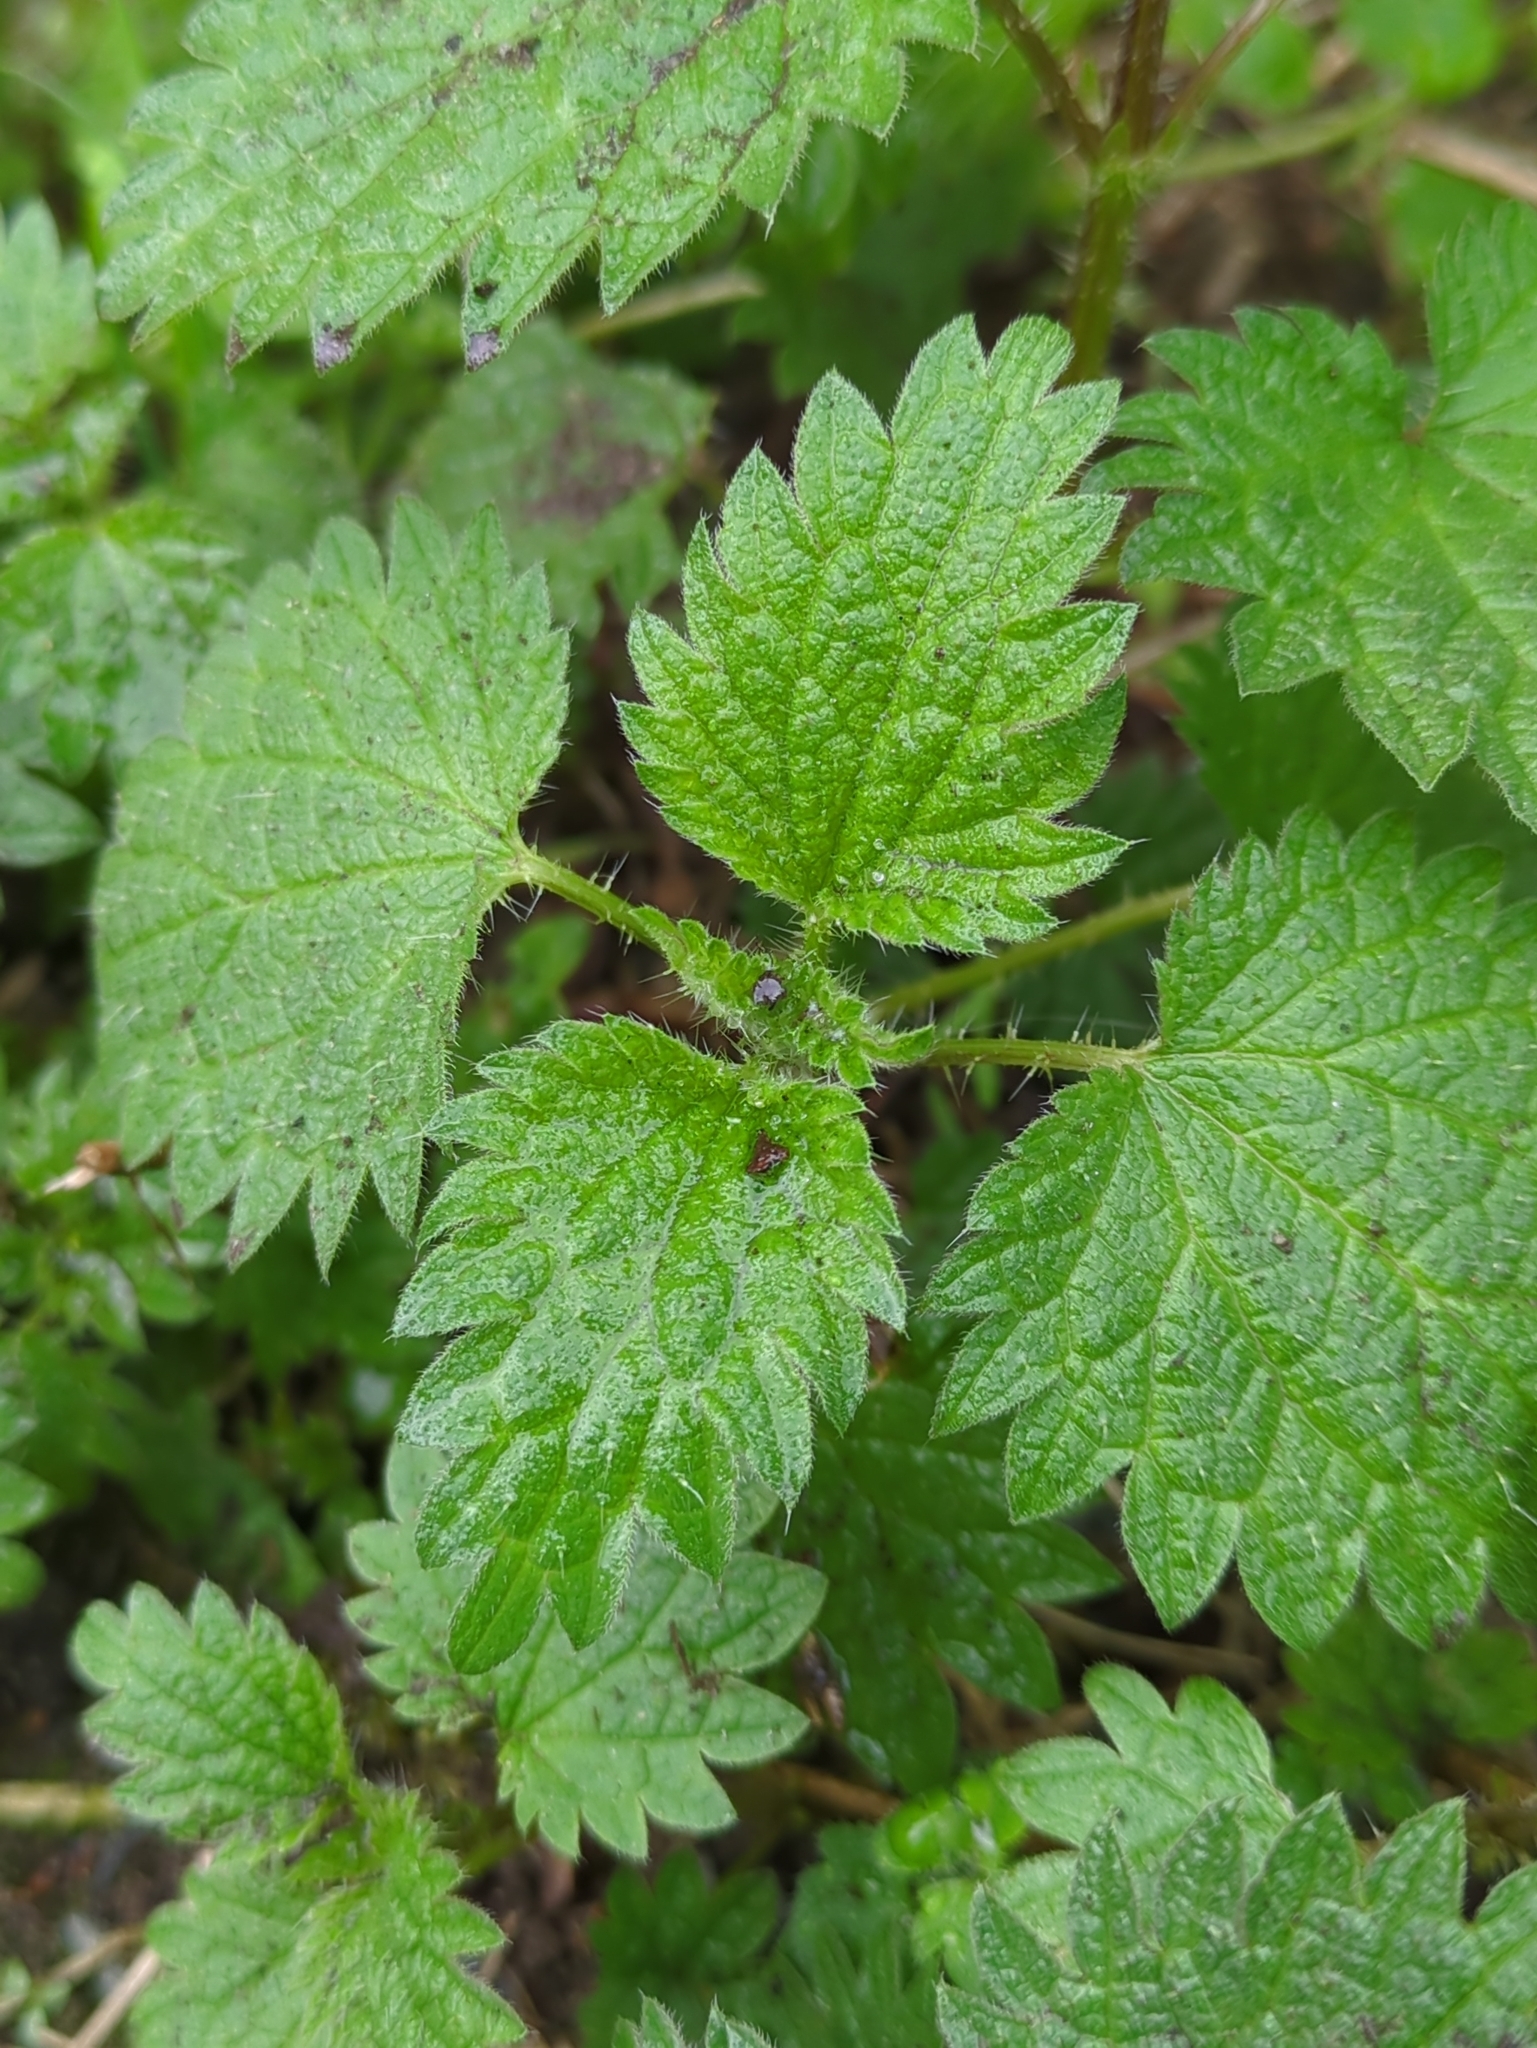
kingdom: Plantae
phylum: Tracheophyta
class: Magnoliopsida
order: Rosales
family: Urticaceae
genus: Urtica
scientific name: Urtica dioica
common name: Common nettle
